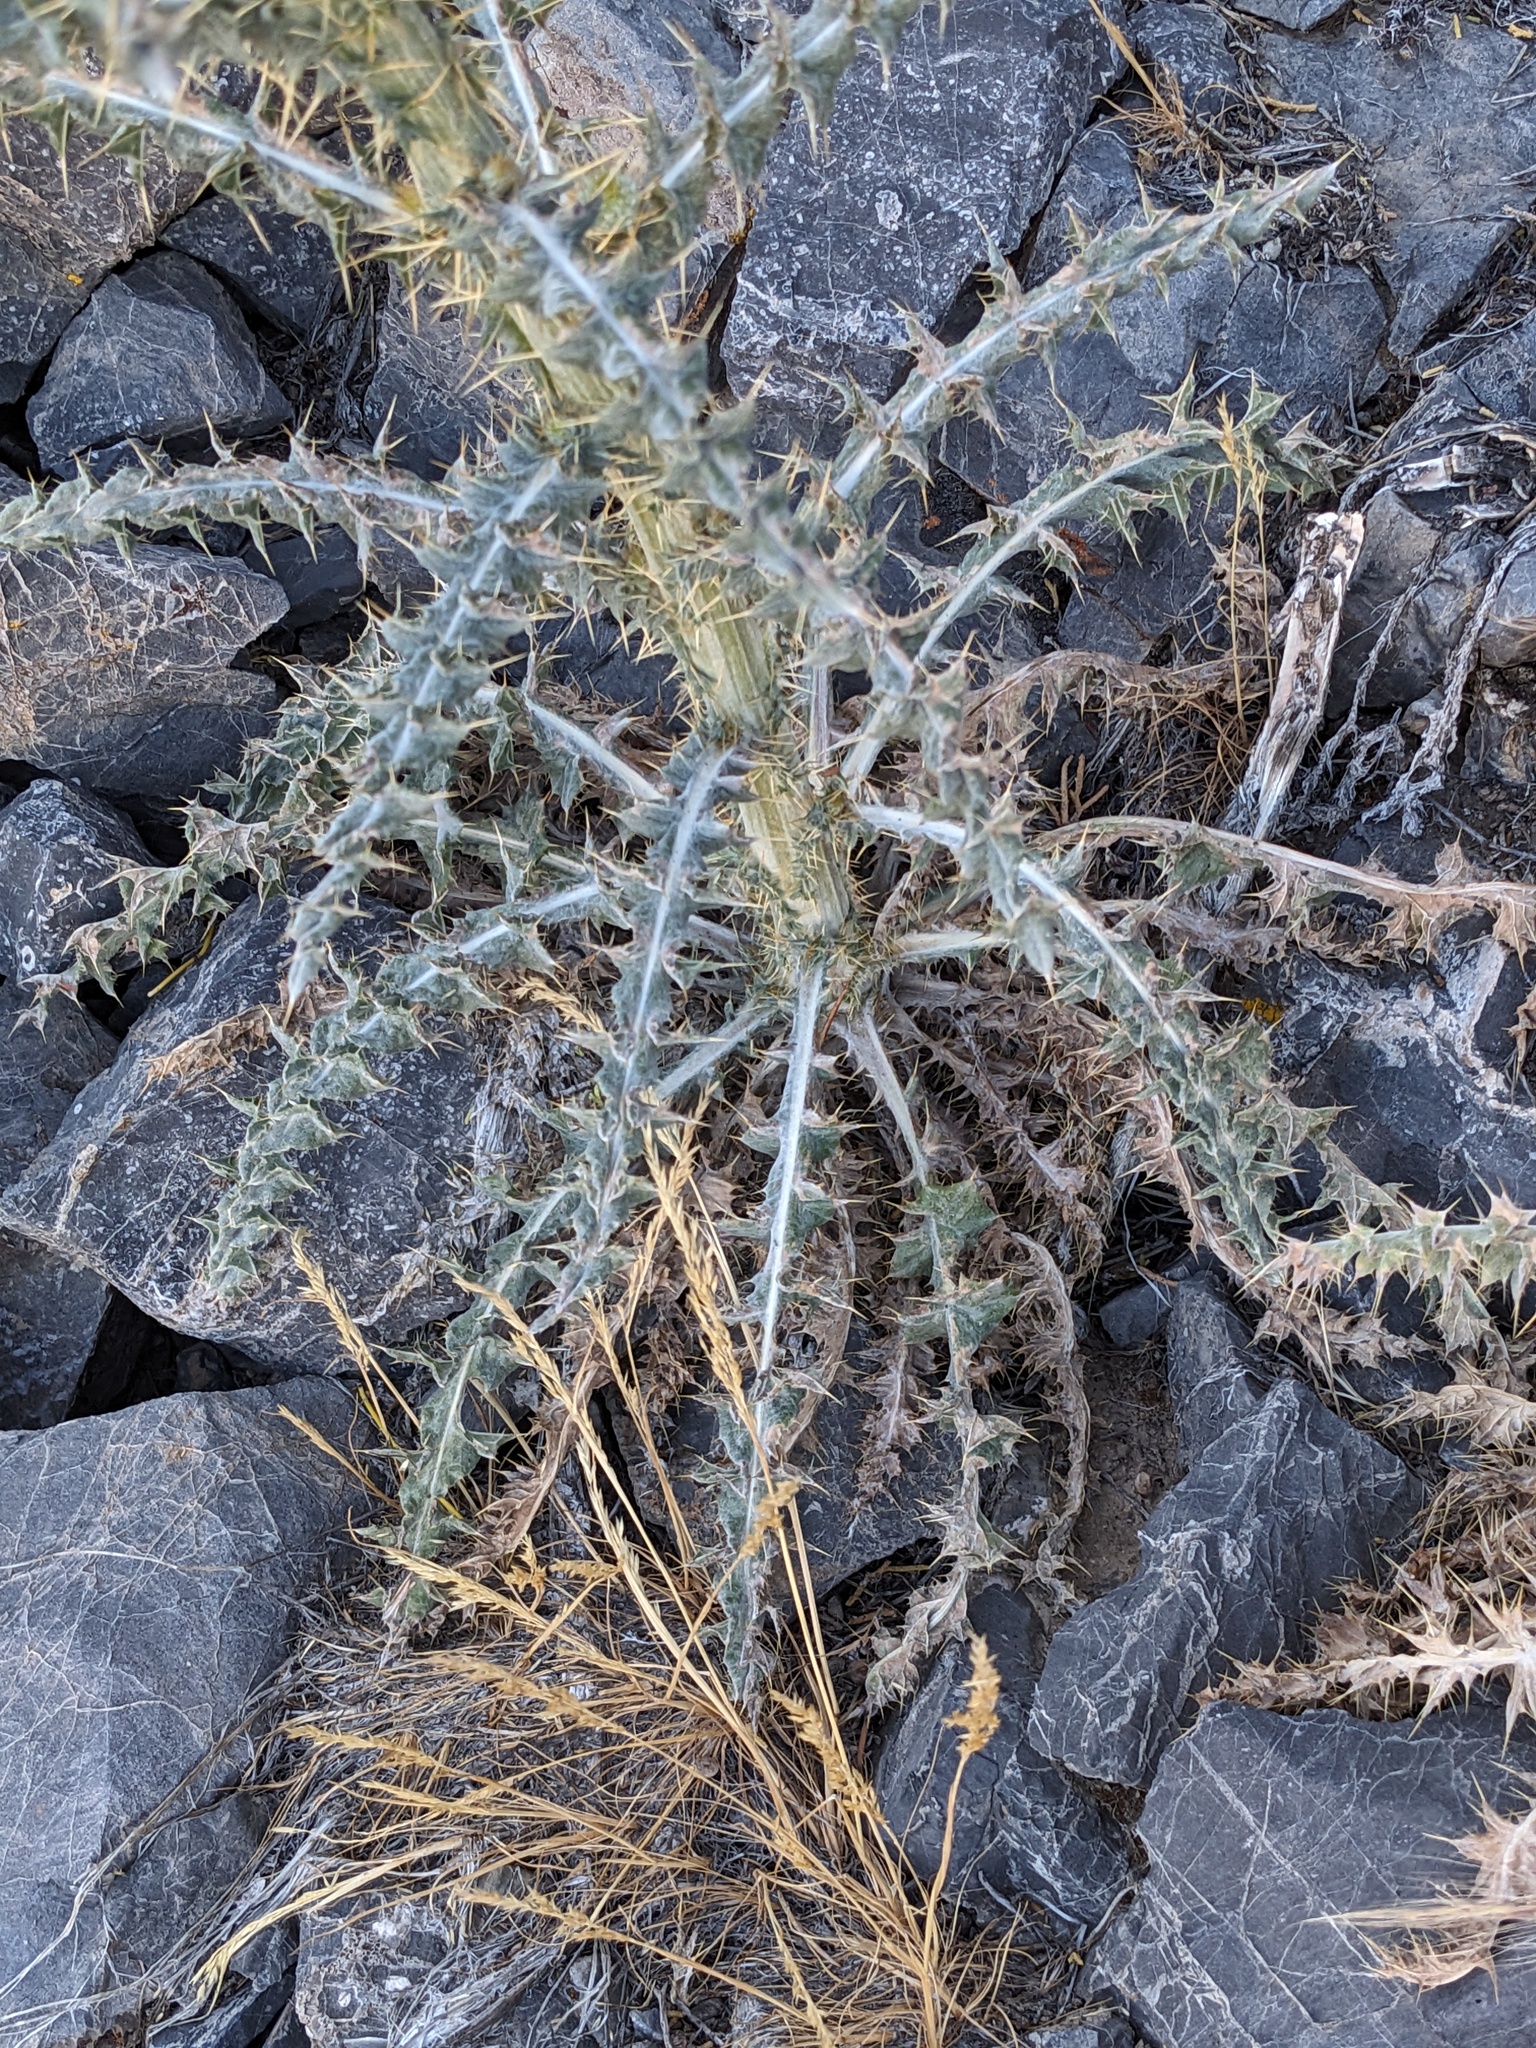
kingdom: Plantae
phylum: Tracheophyta
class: Magnoliopsida
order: Asterales
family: Asteraceae
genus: Cirsium
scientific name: Cirsium neomexicanum
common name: New mexico thistle
